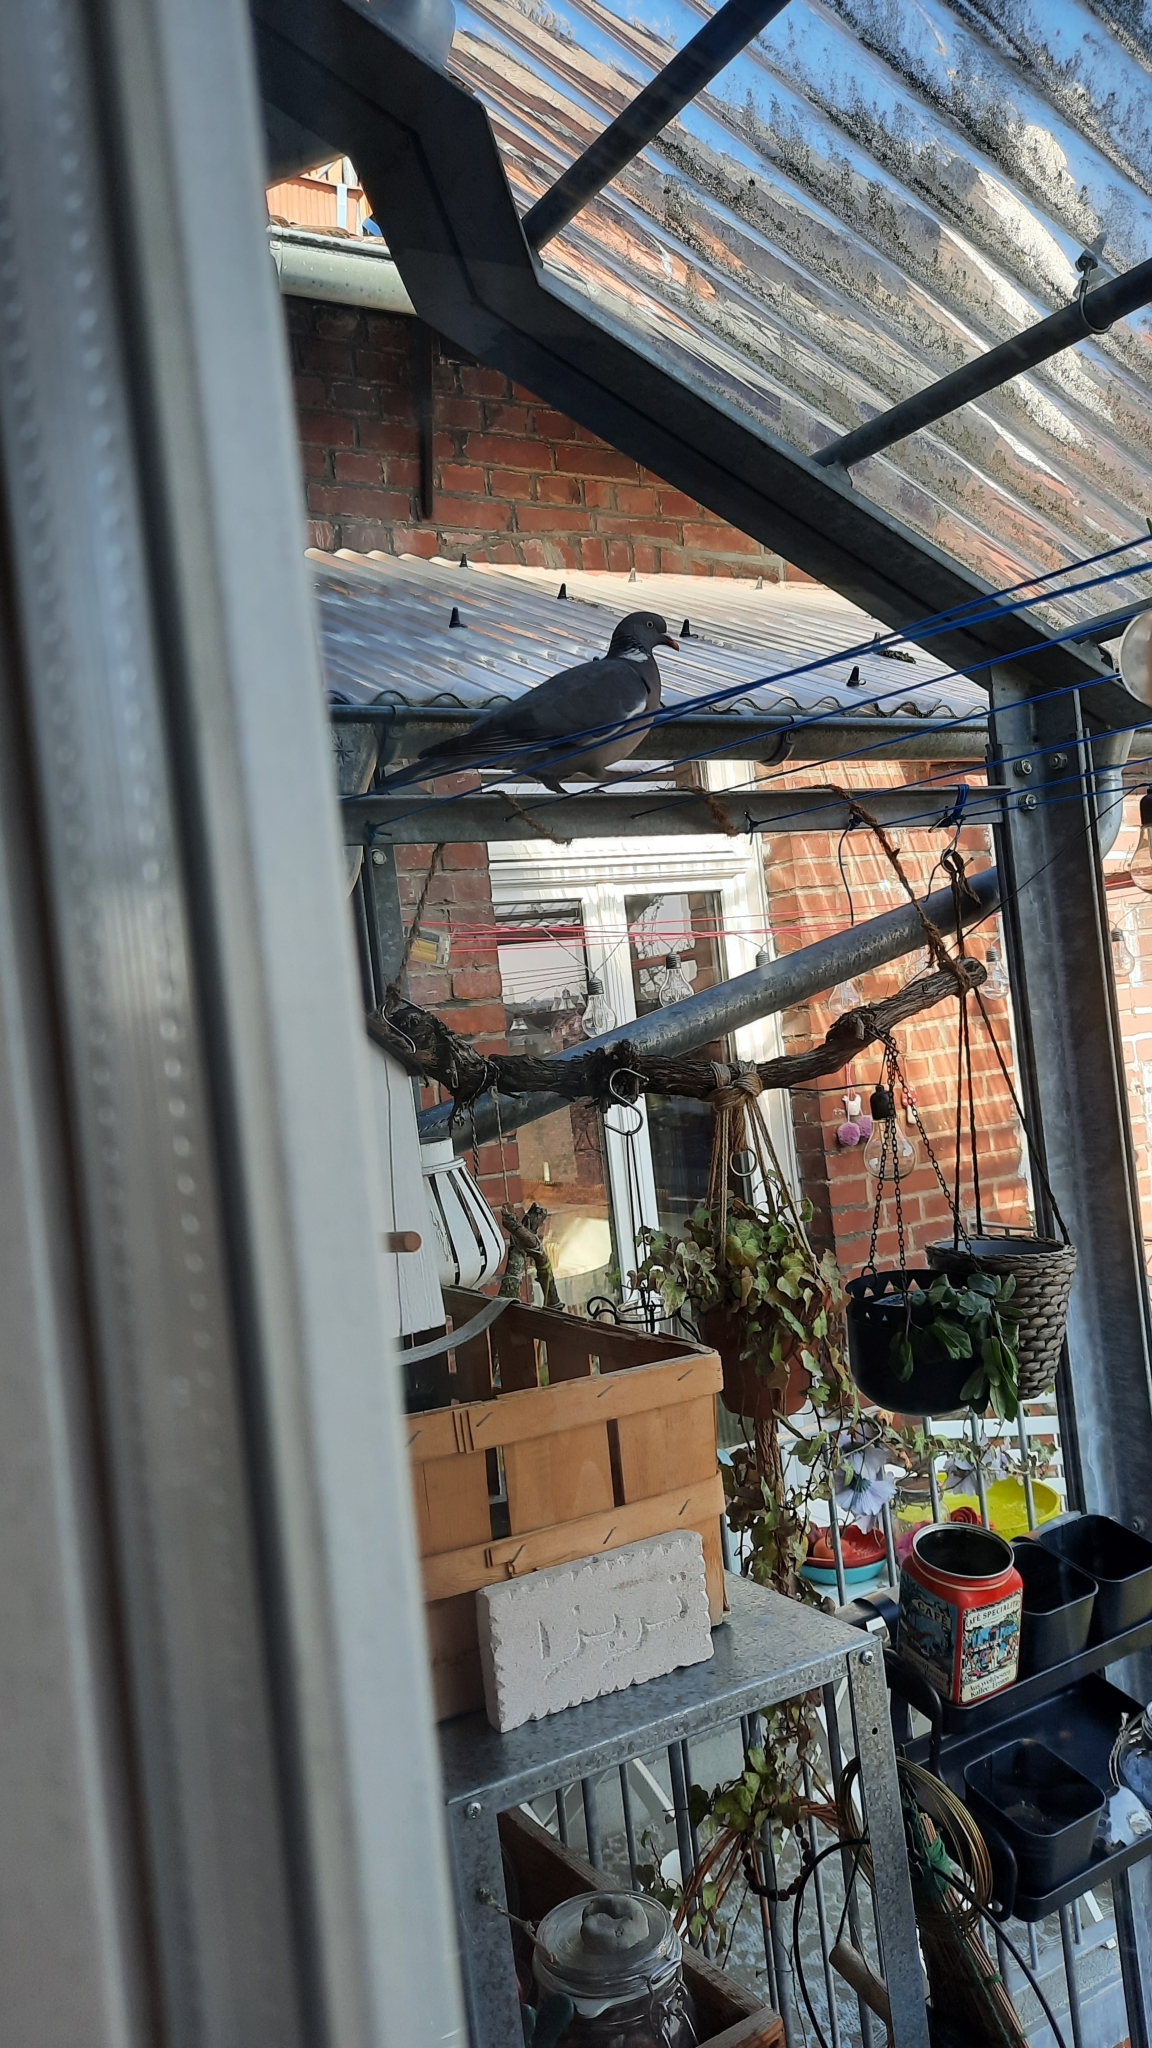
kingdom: Animalia
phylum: Chordata
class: Aves
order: Columbiformes
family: Columbidae
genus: Columba
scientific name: Columba palumbus
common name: Common wood pigeon
